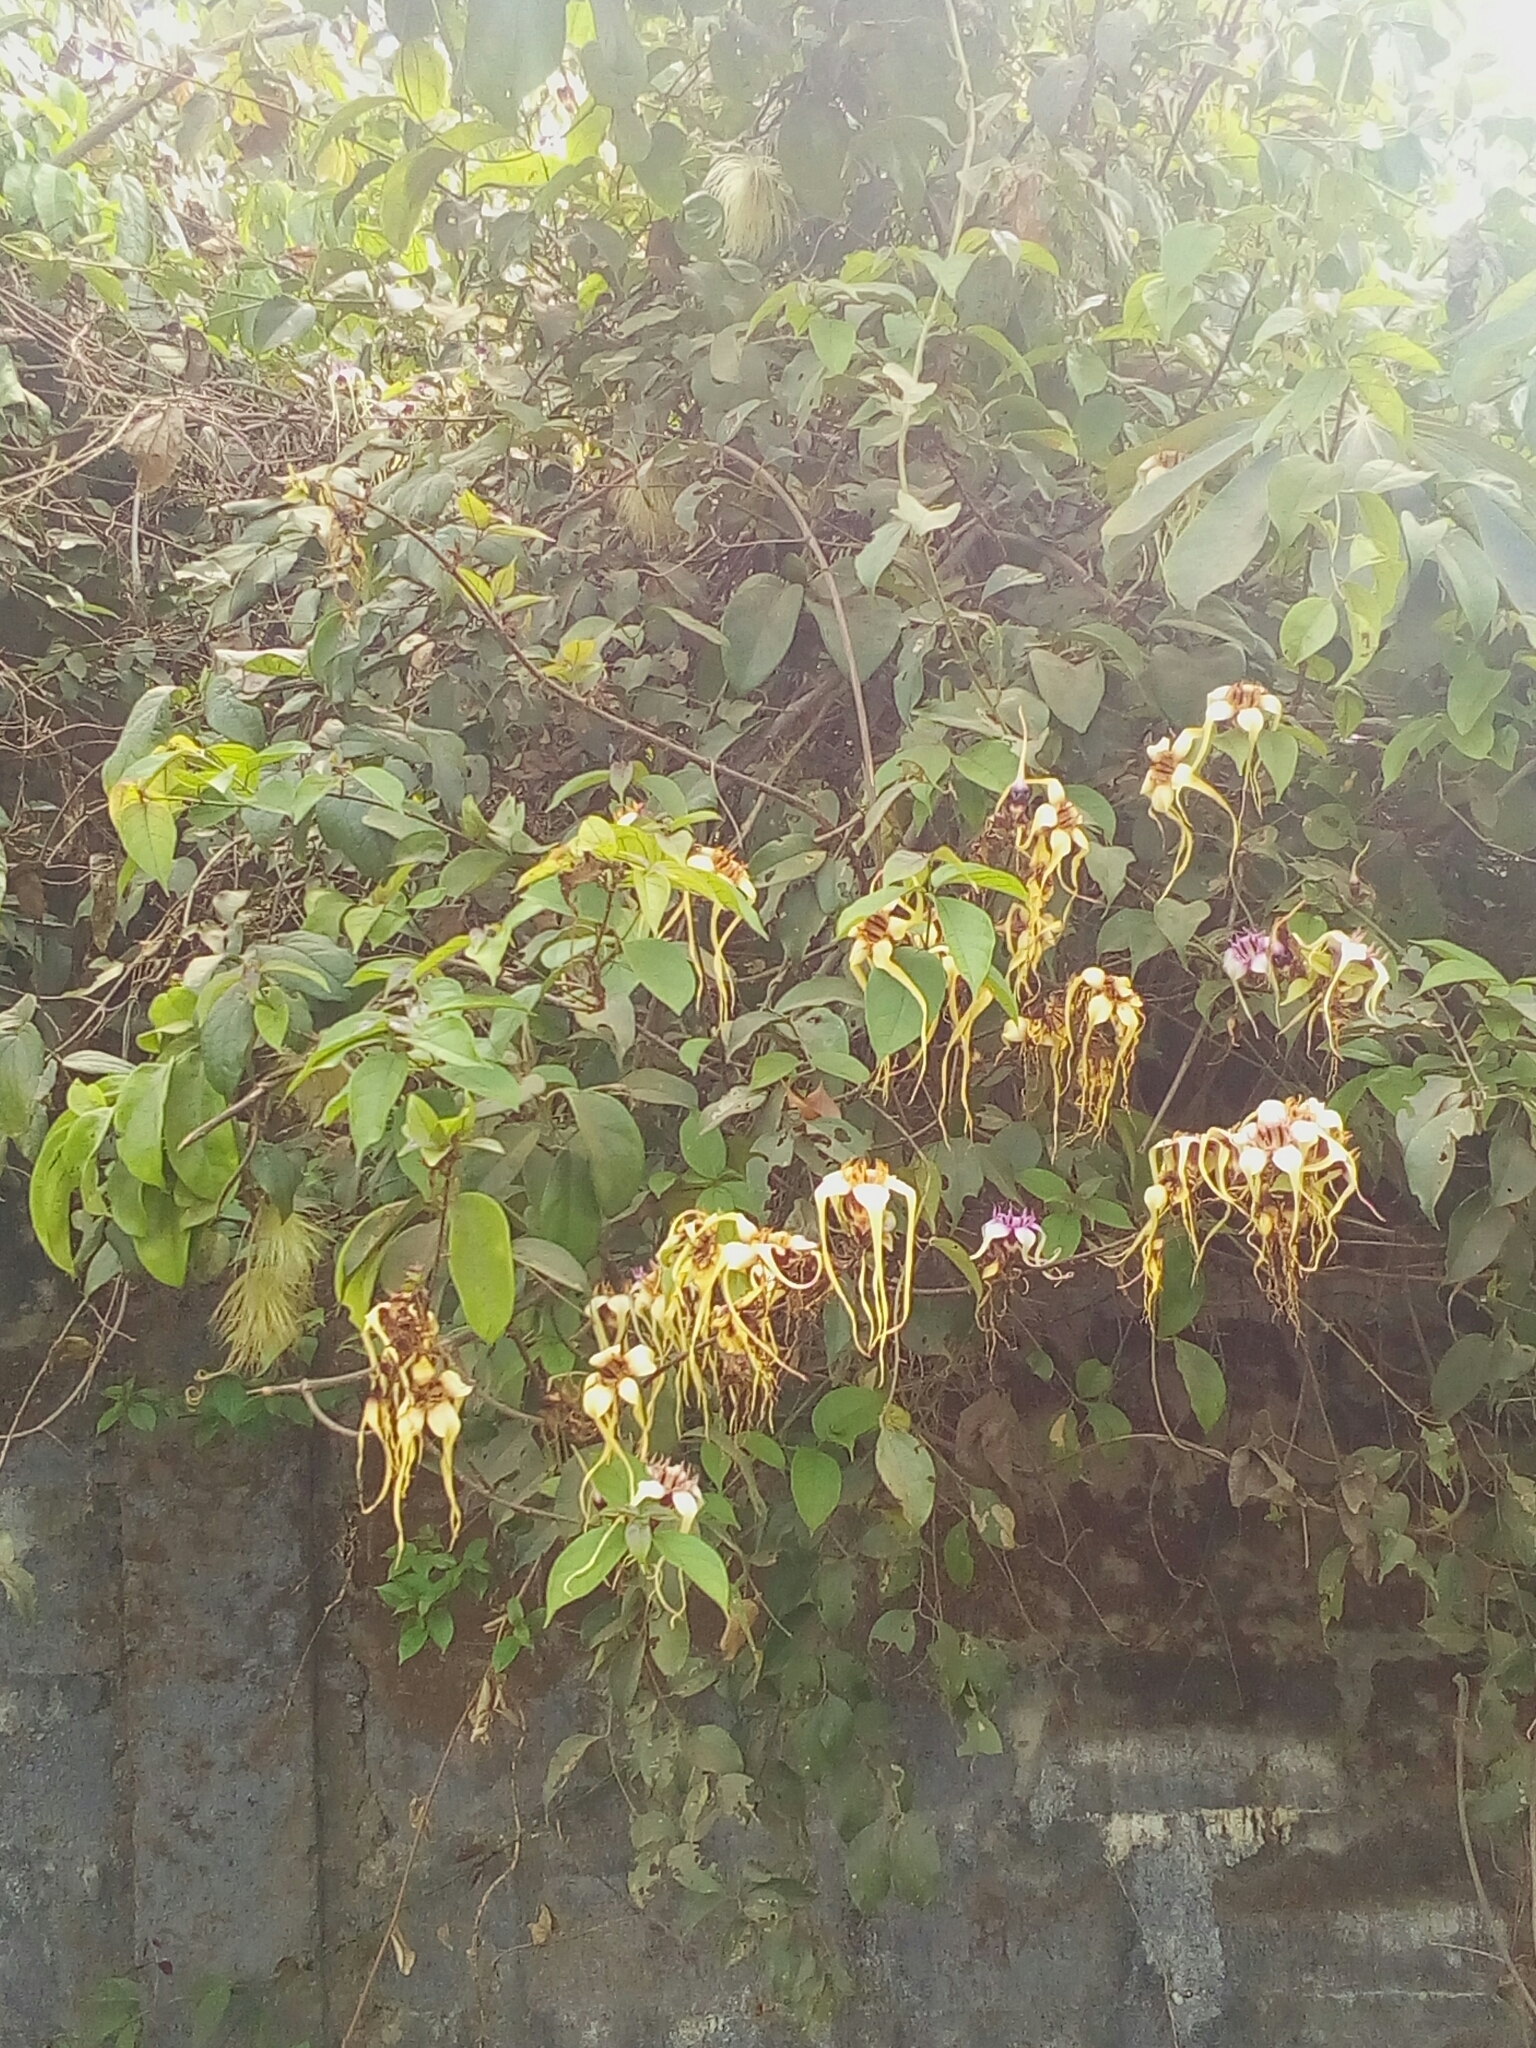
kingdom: Plantae
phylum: Tracheophyta
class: Magnoliopsida
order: Gentianales
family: Apocynaceae
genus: Strophanthus
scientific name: Strophanthus sarmentosus
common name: Poison arrowvine
